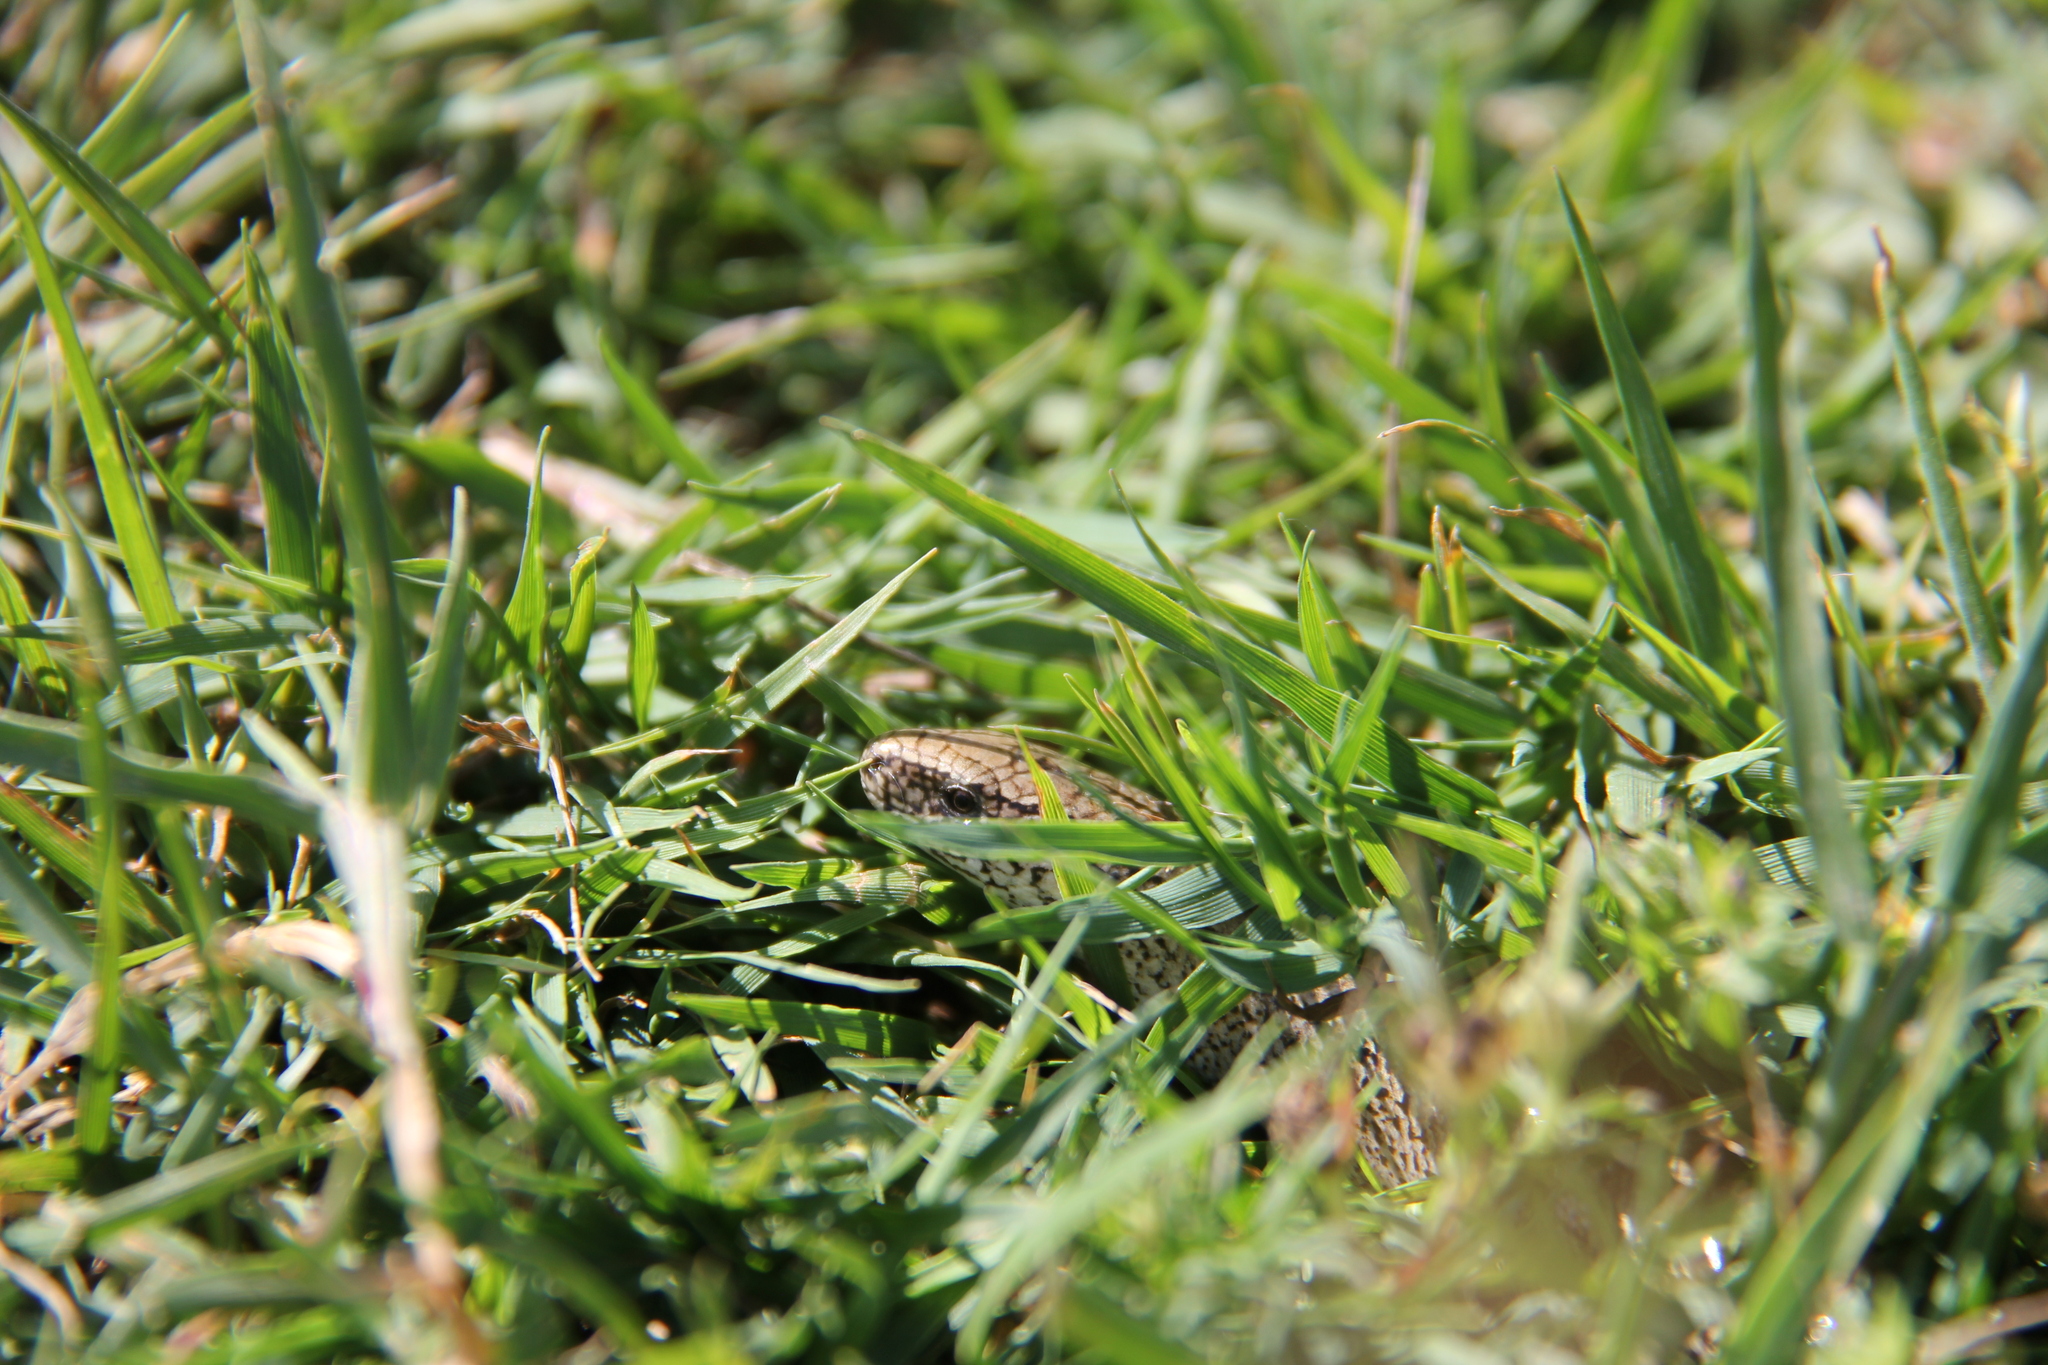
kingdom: Animalia
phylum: Chordata
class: Squamata
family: Anguidae
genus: Anguis
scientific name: Anguis fragilis
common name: Slow worm
